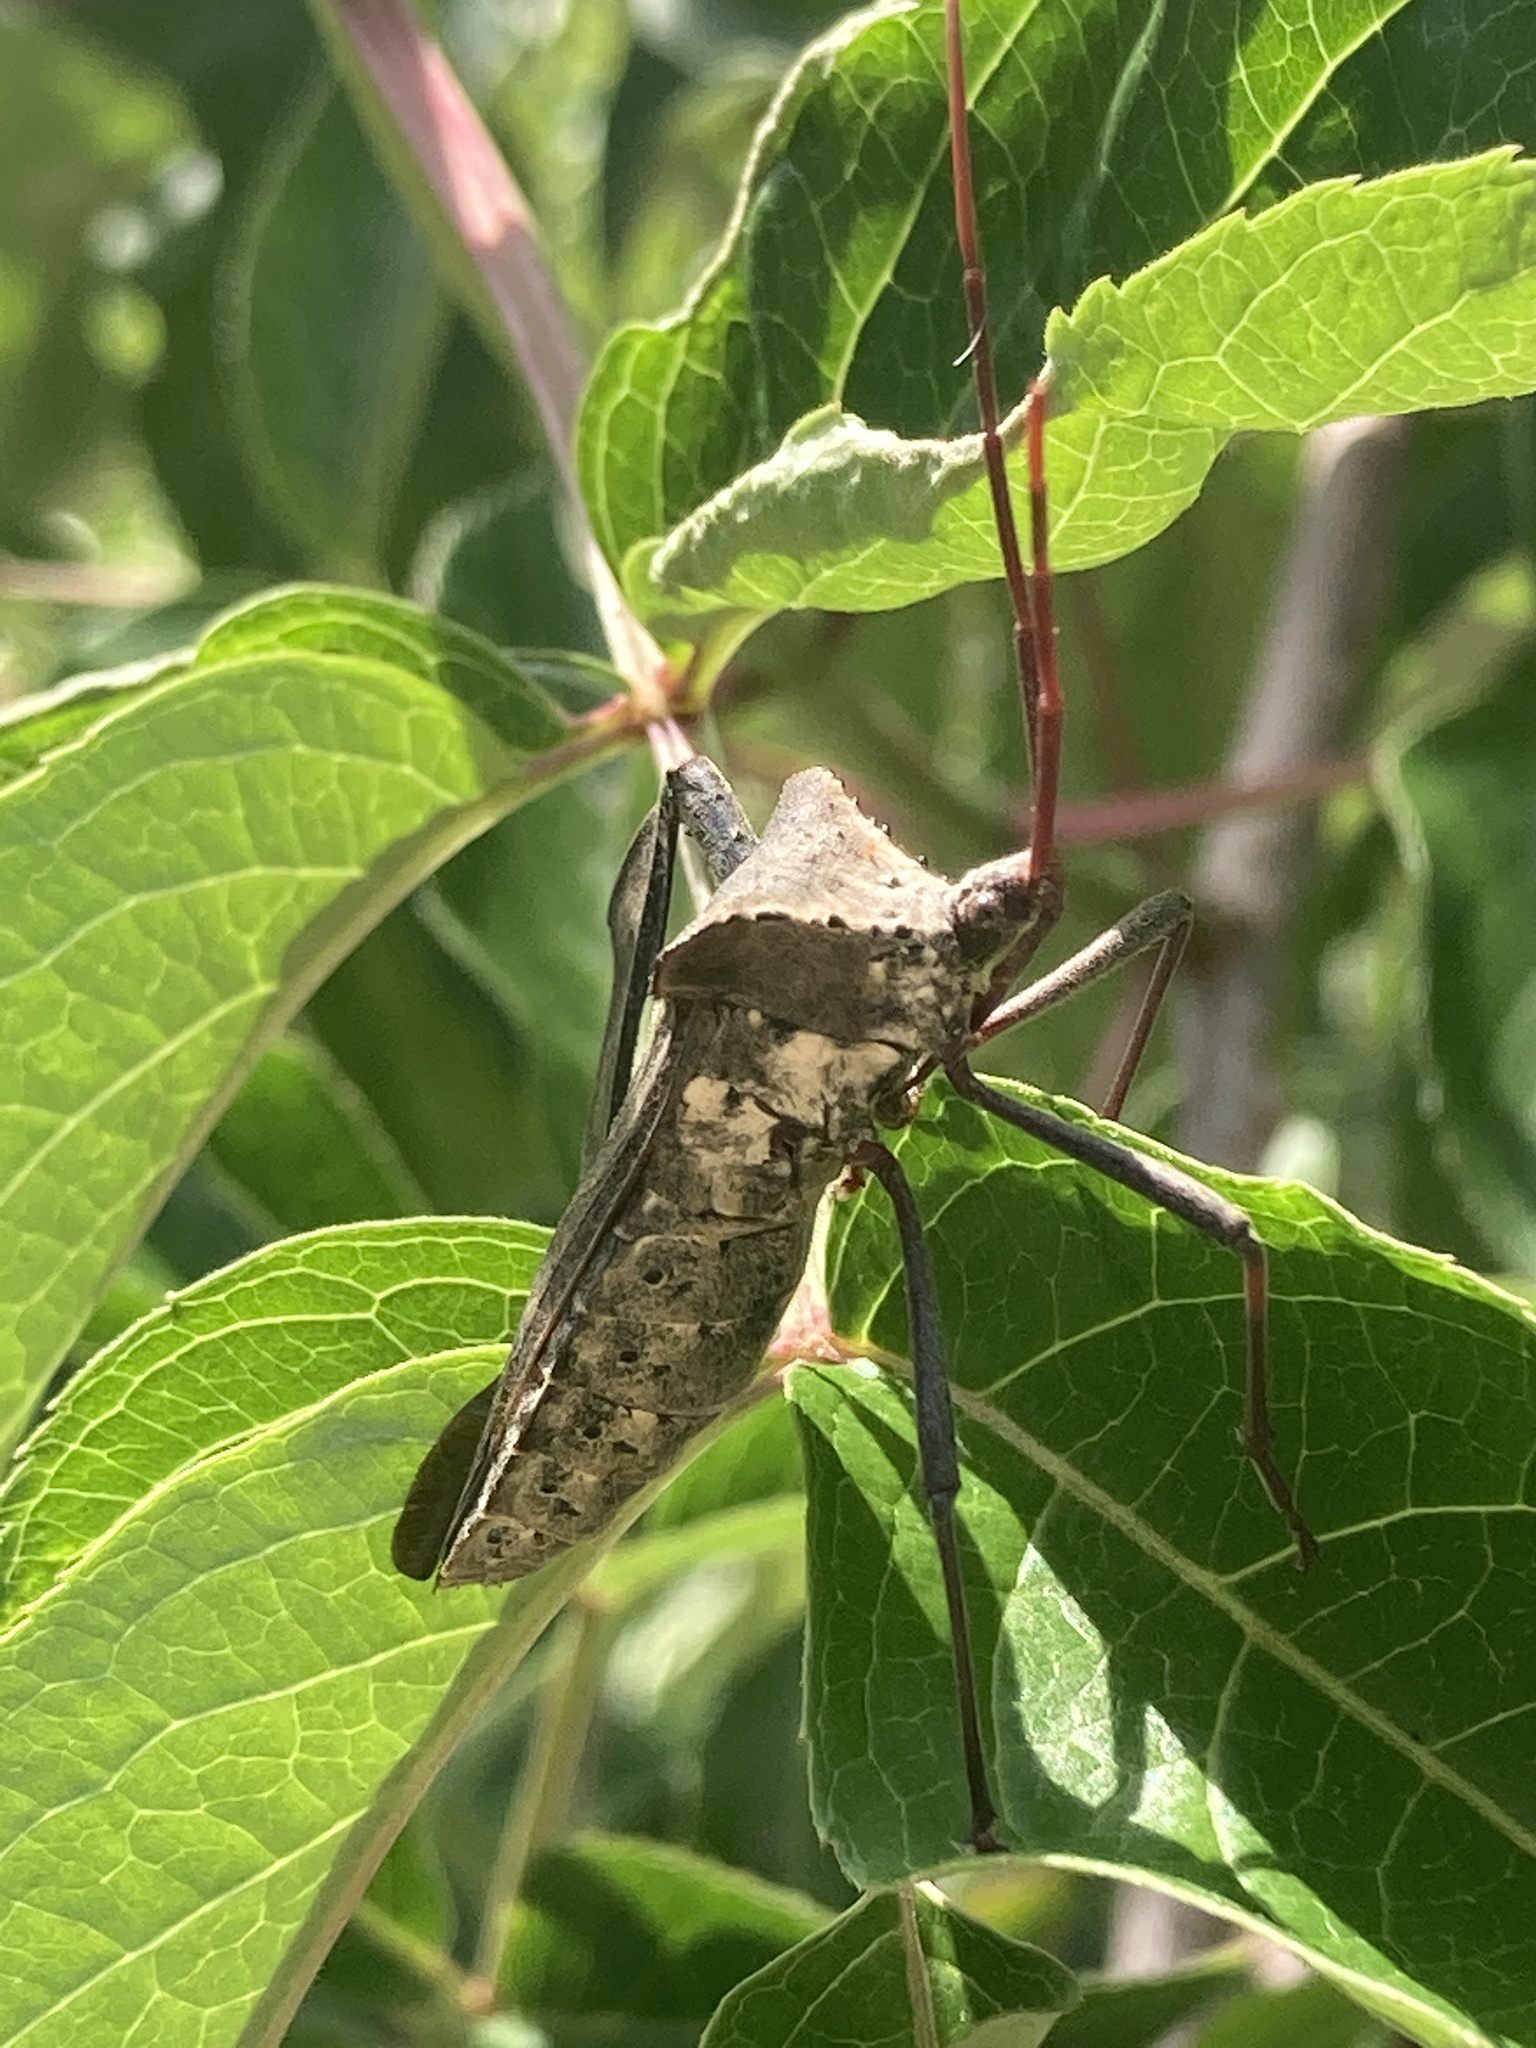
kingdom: Animalia
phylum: Arthropoda
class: Insecta
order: Hemiptera
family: Coreidae
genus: Acanthocephala
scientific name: Acanthocephala declivis
